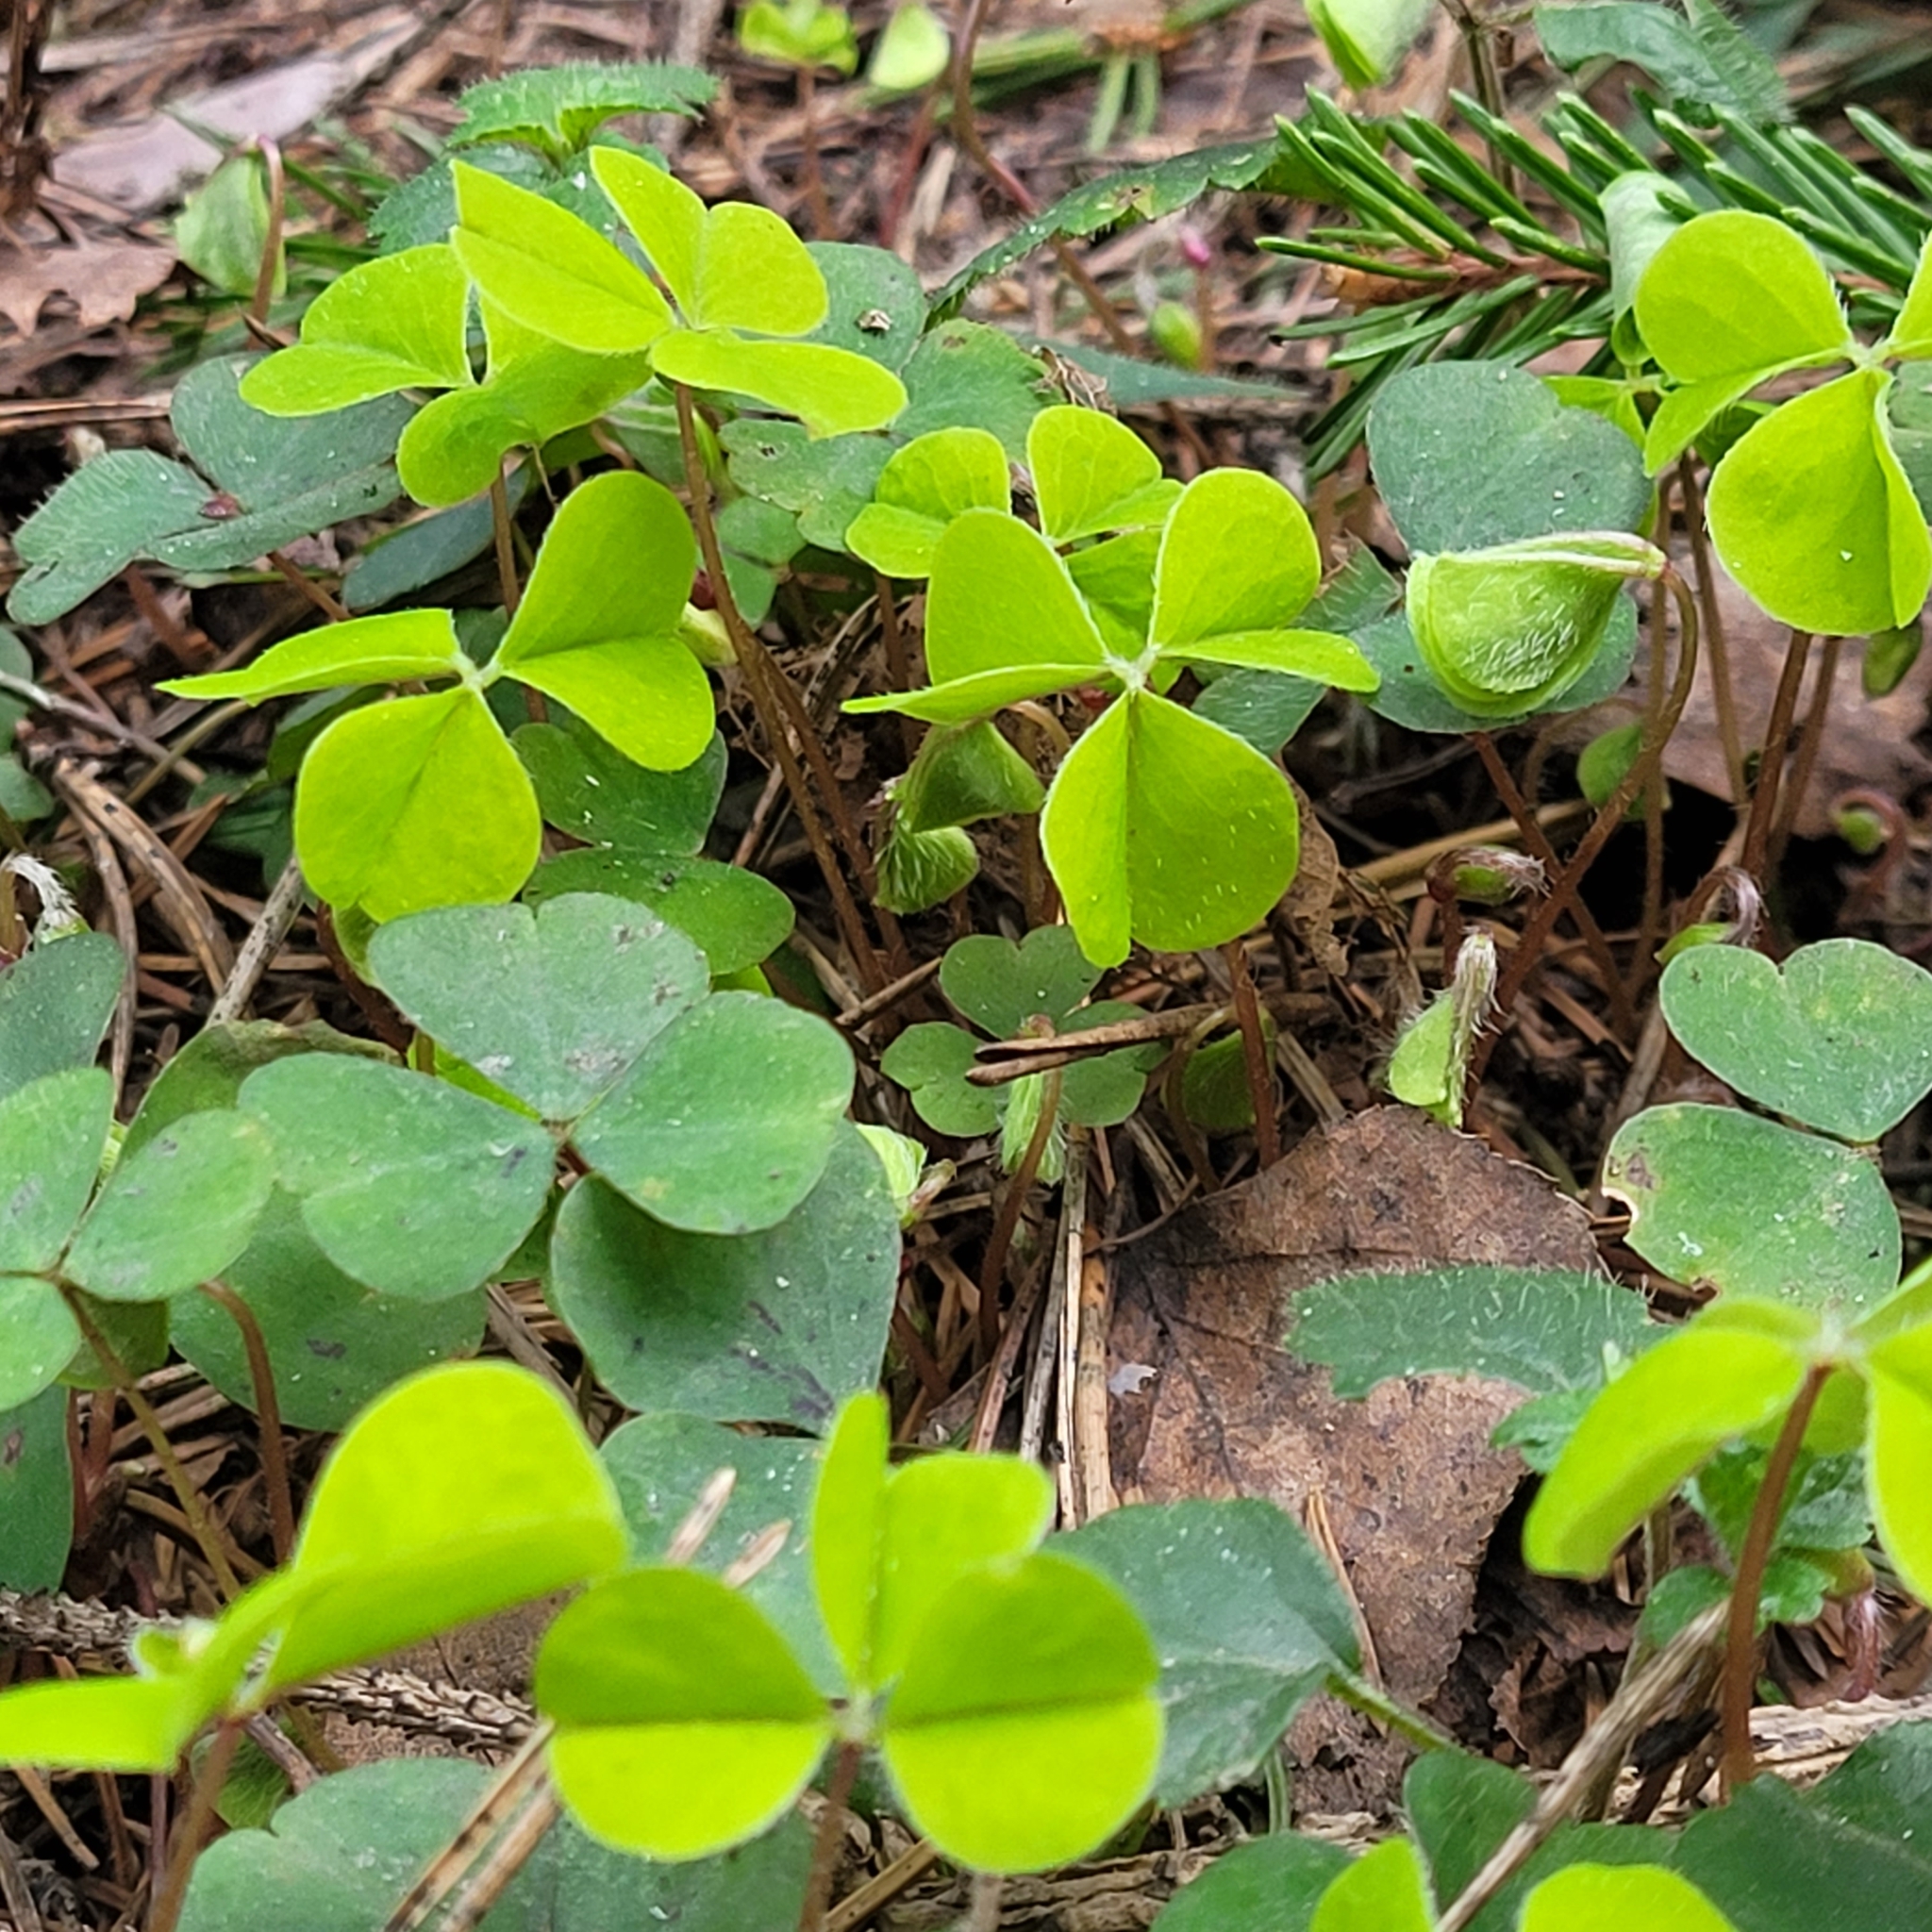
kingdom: Plantae
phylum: Tracheophyta
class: Magnoliopsida
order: Oxalidales
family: Oxalidaceae
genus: Oxalis
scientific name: Oxalis acetosella
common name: Wood-sorrel
